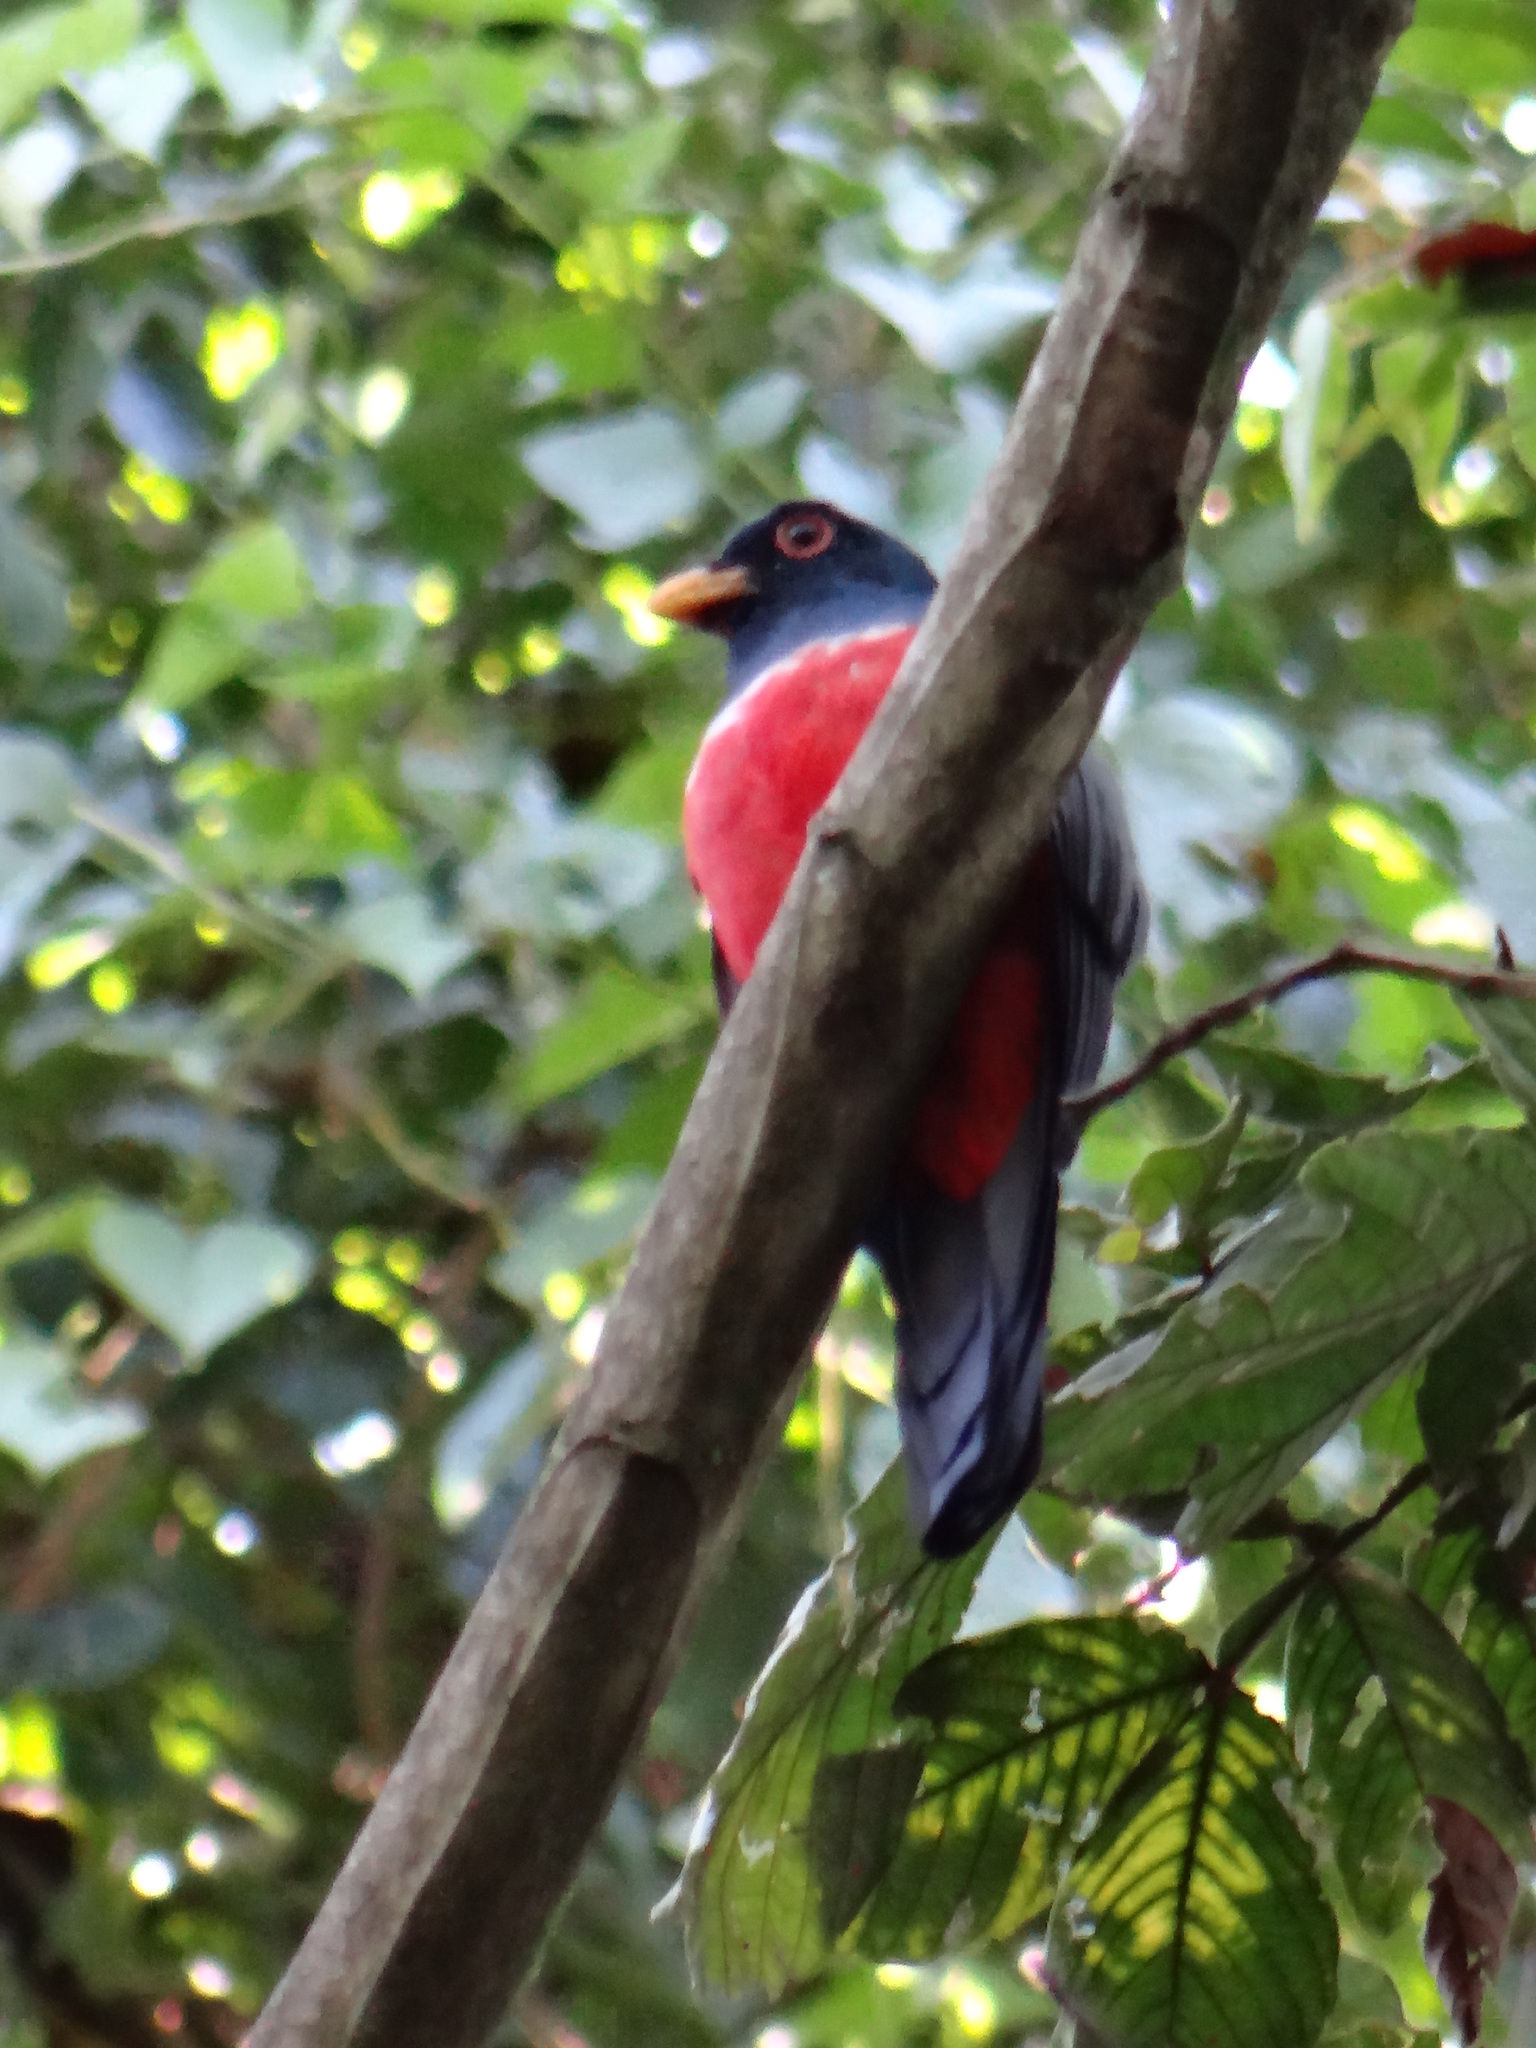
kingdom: Animalia
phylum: Chordata
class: Aves
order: Trogoniformes
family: Trogonidae
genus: Trogon
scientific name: Trogon melanurus
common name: Black-tailed trogon
